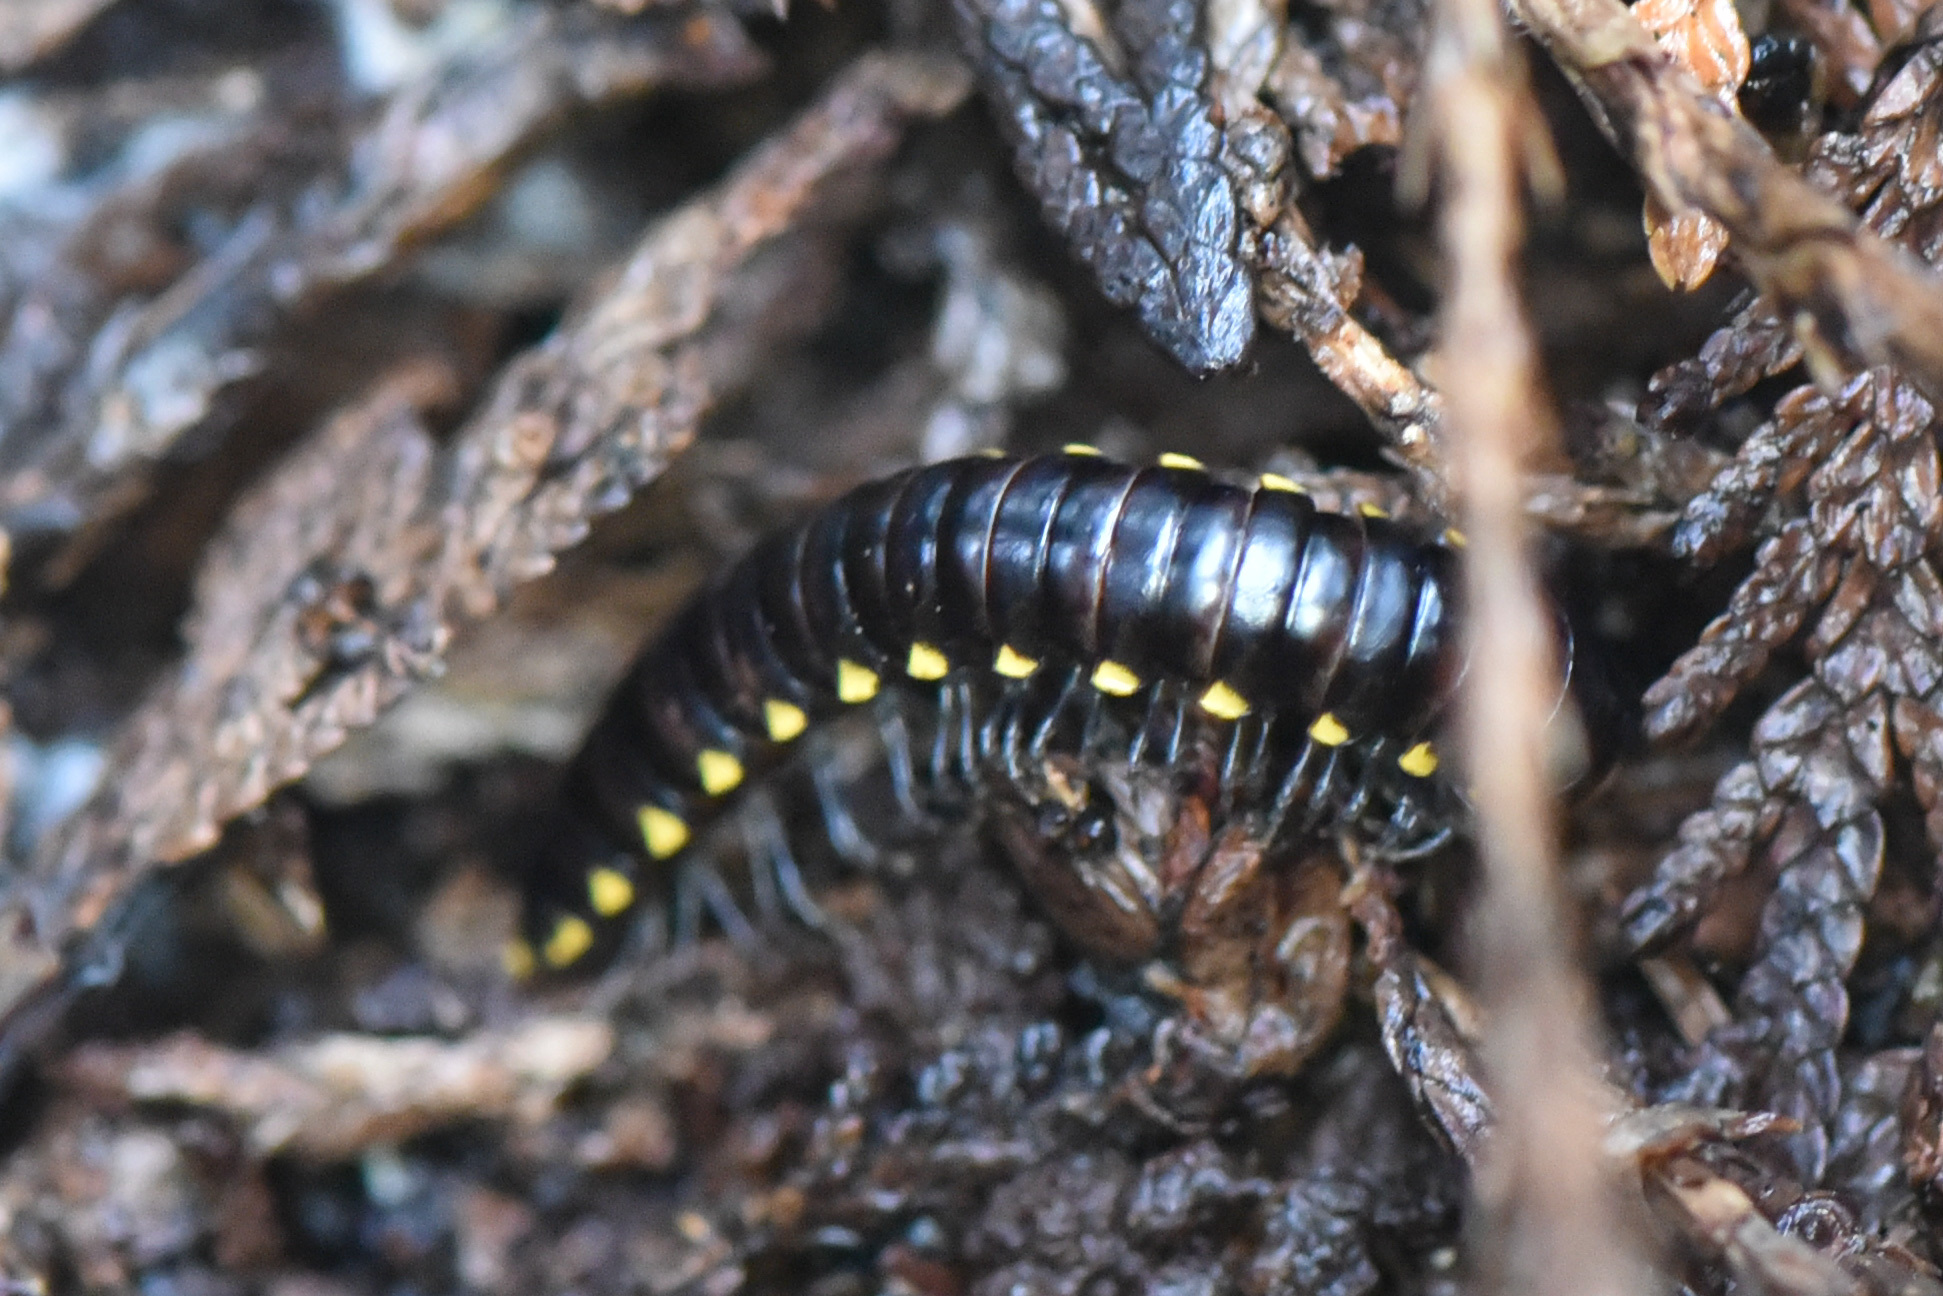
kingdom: Animalia
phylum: Arthropoda
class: Diplopoda
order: Polydesmida
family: Xystodesmidae
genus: Harpaphe
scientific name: Harpaphe haydeniana
